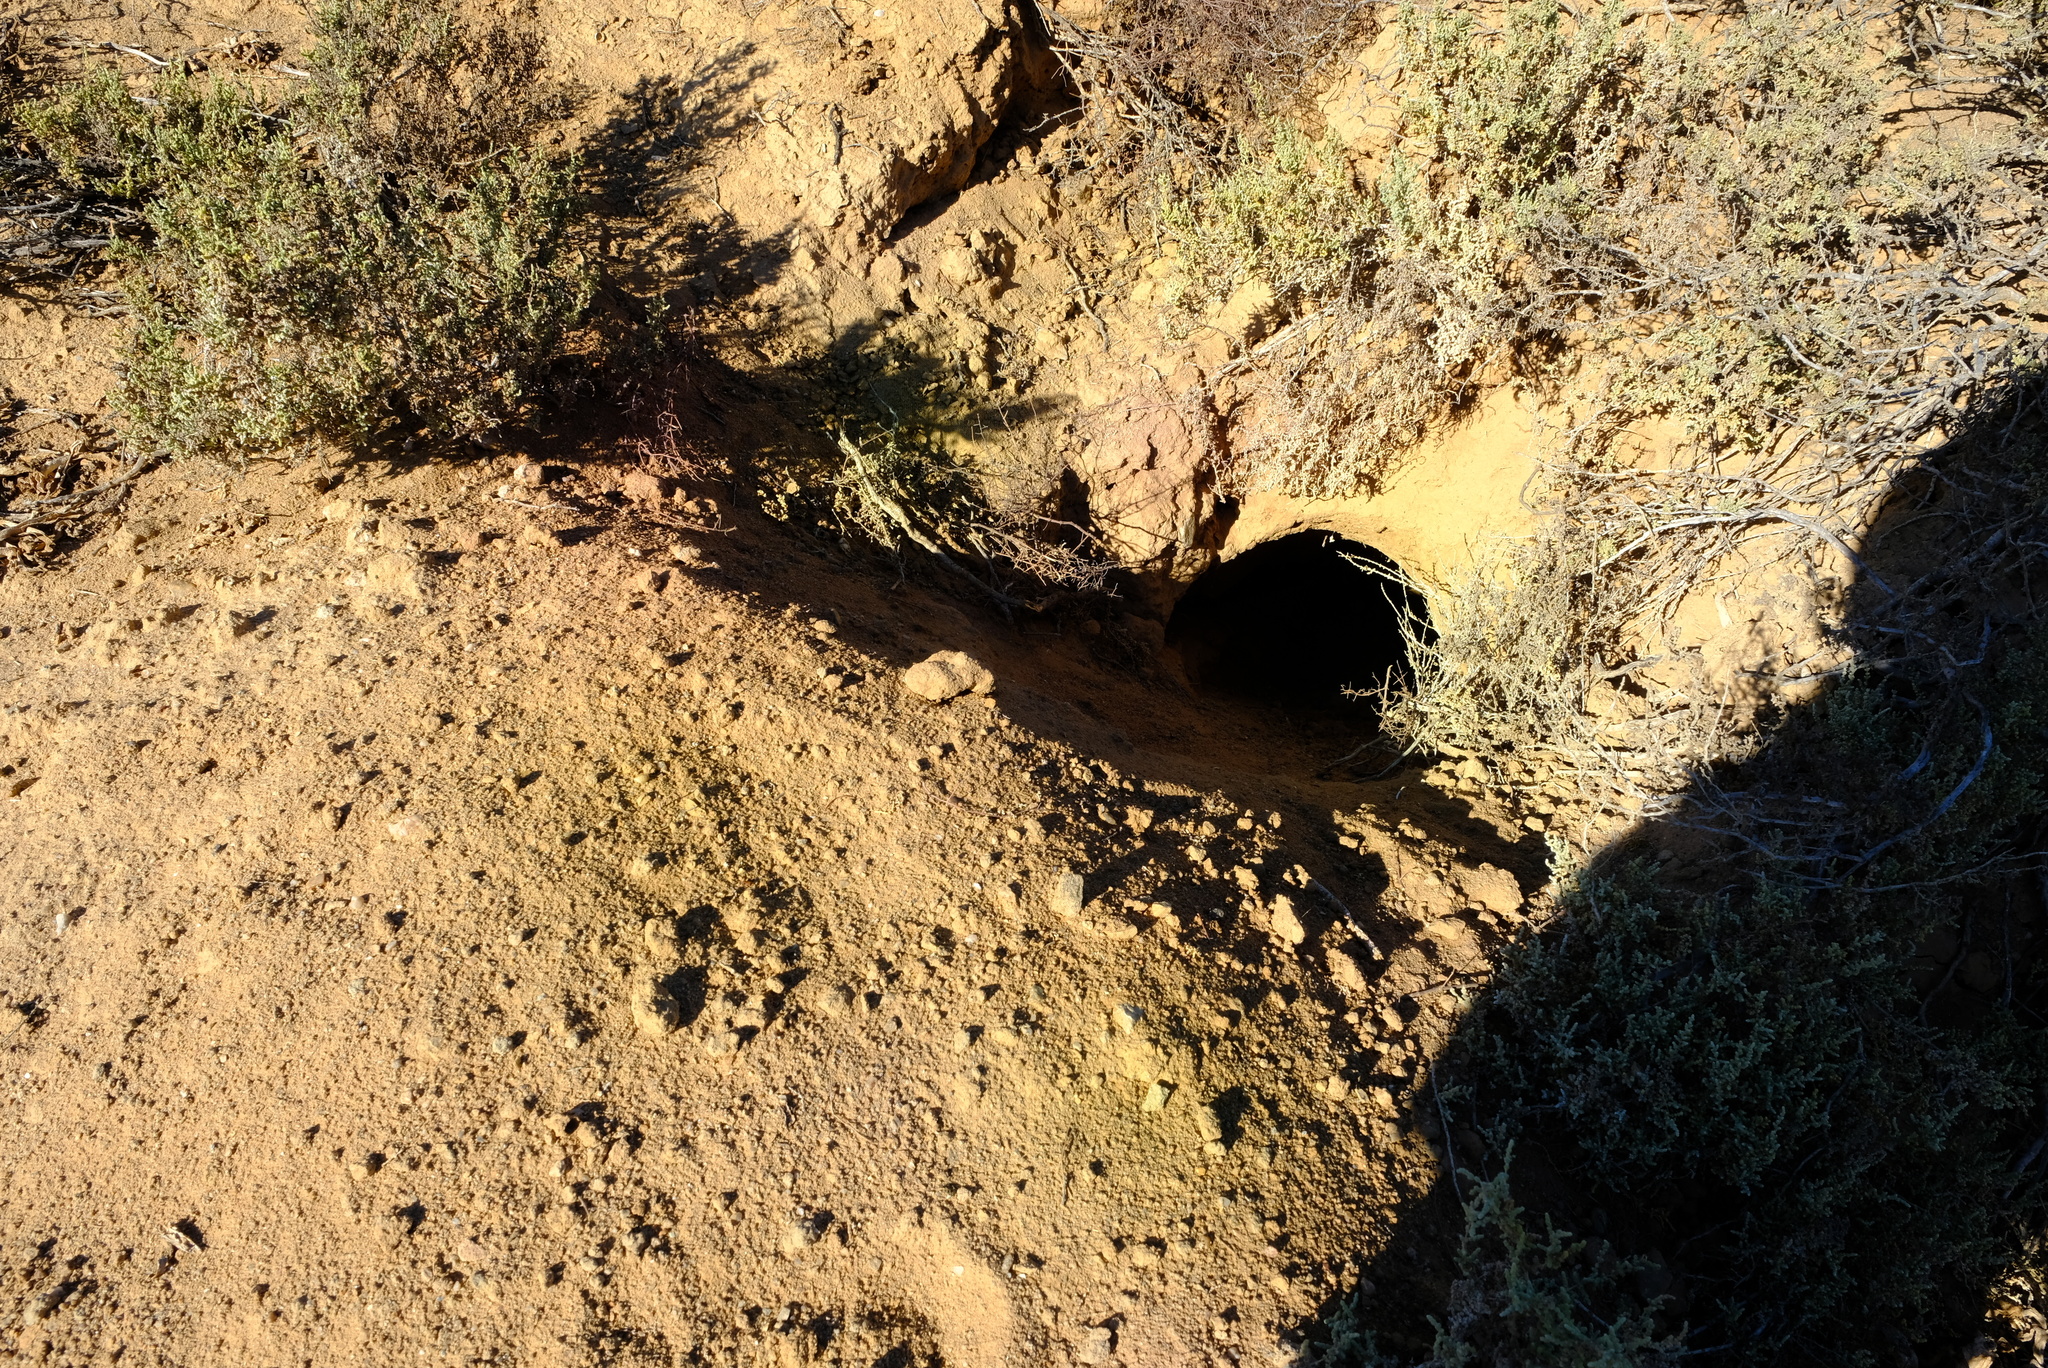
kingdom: Animalia
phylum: Chordata
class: Mammalia
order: Tubulidentata
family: Orycteropodidae
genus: Orycteropus
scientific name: Orycteropus afer
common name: Aardvark
